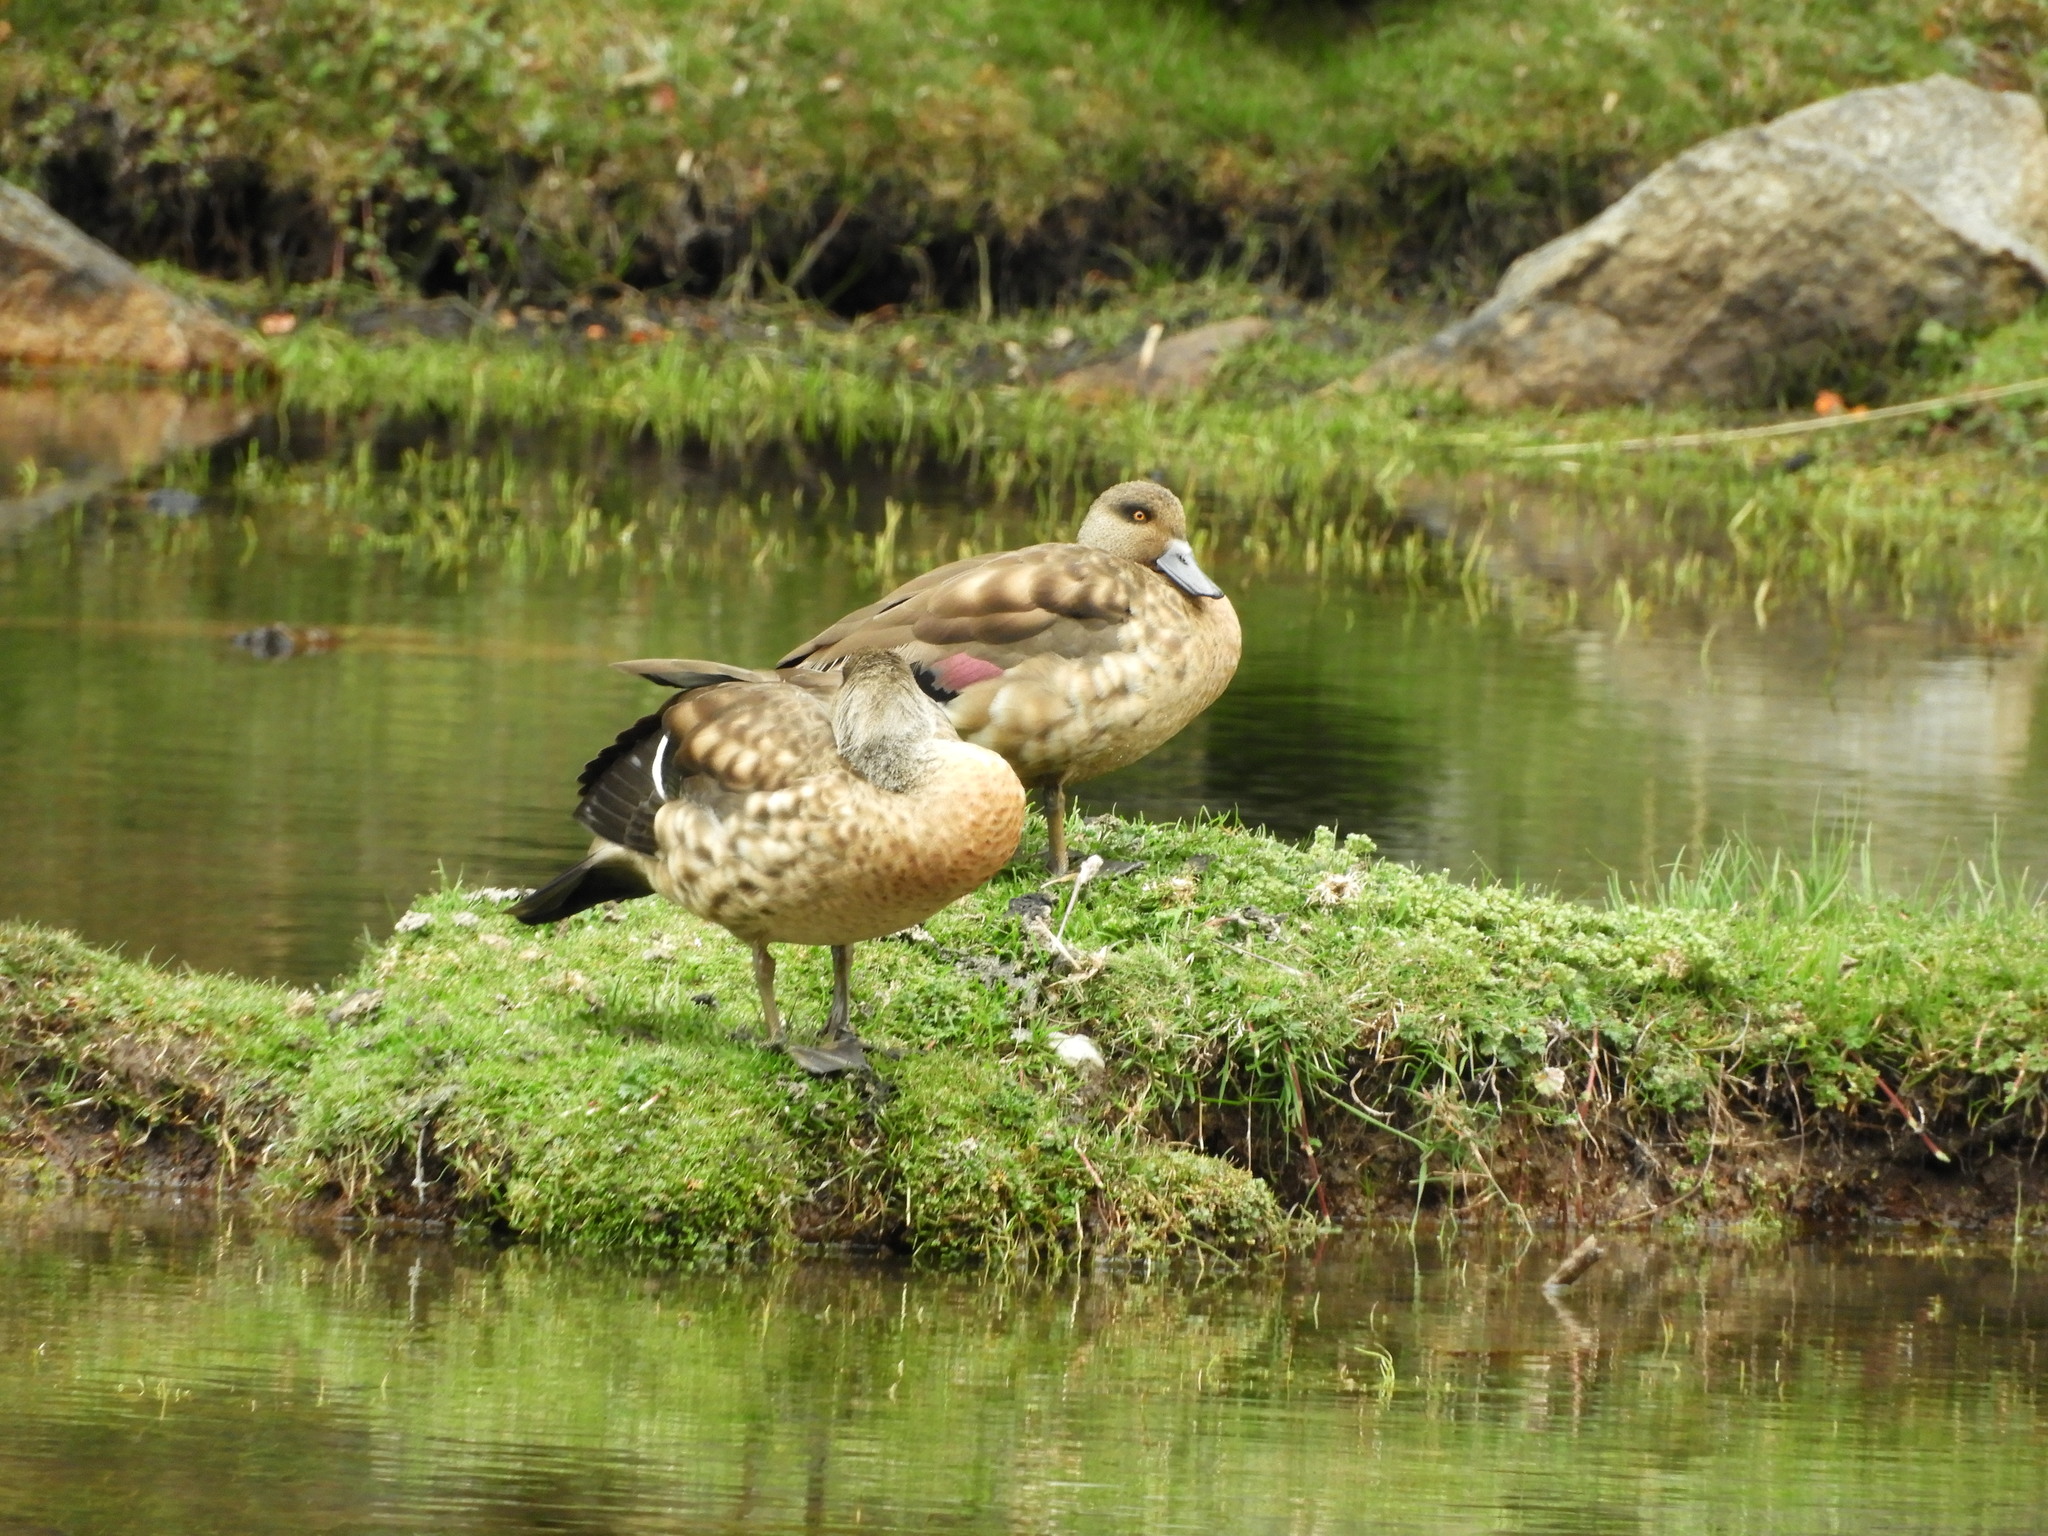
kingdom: Animalia
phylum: Chordata
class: Aves
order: Anseriformes
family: Anatidae
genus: Lophonetta
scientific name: Lophonetta specularioides
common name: Crested duck
